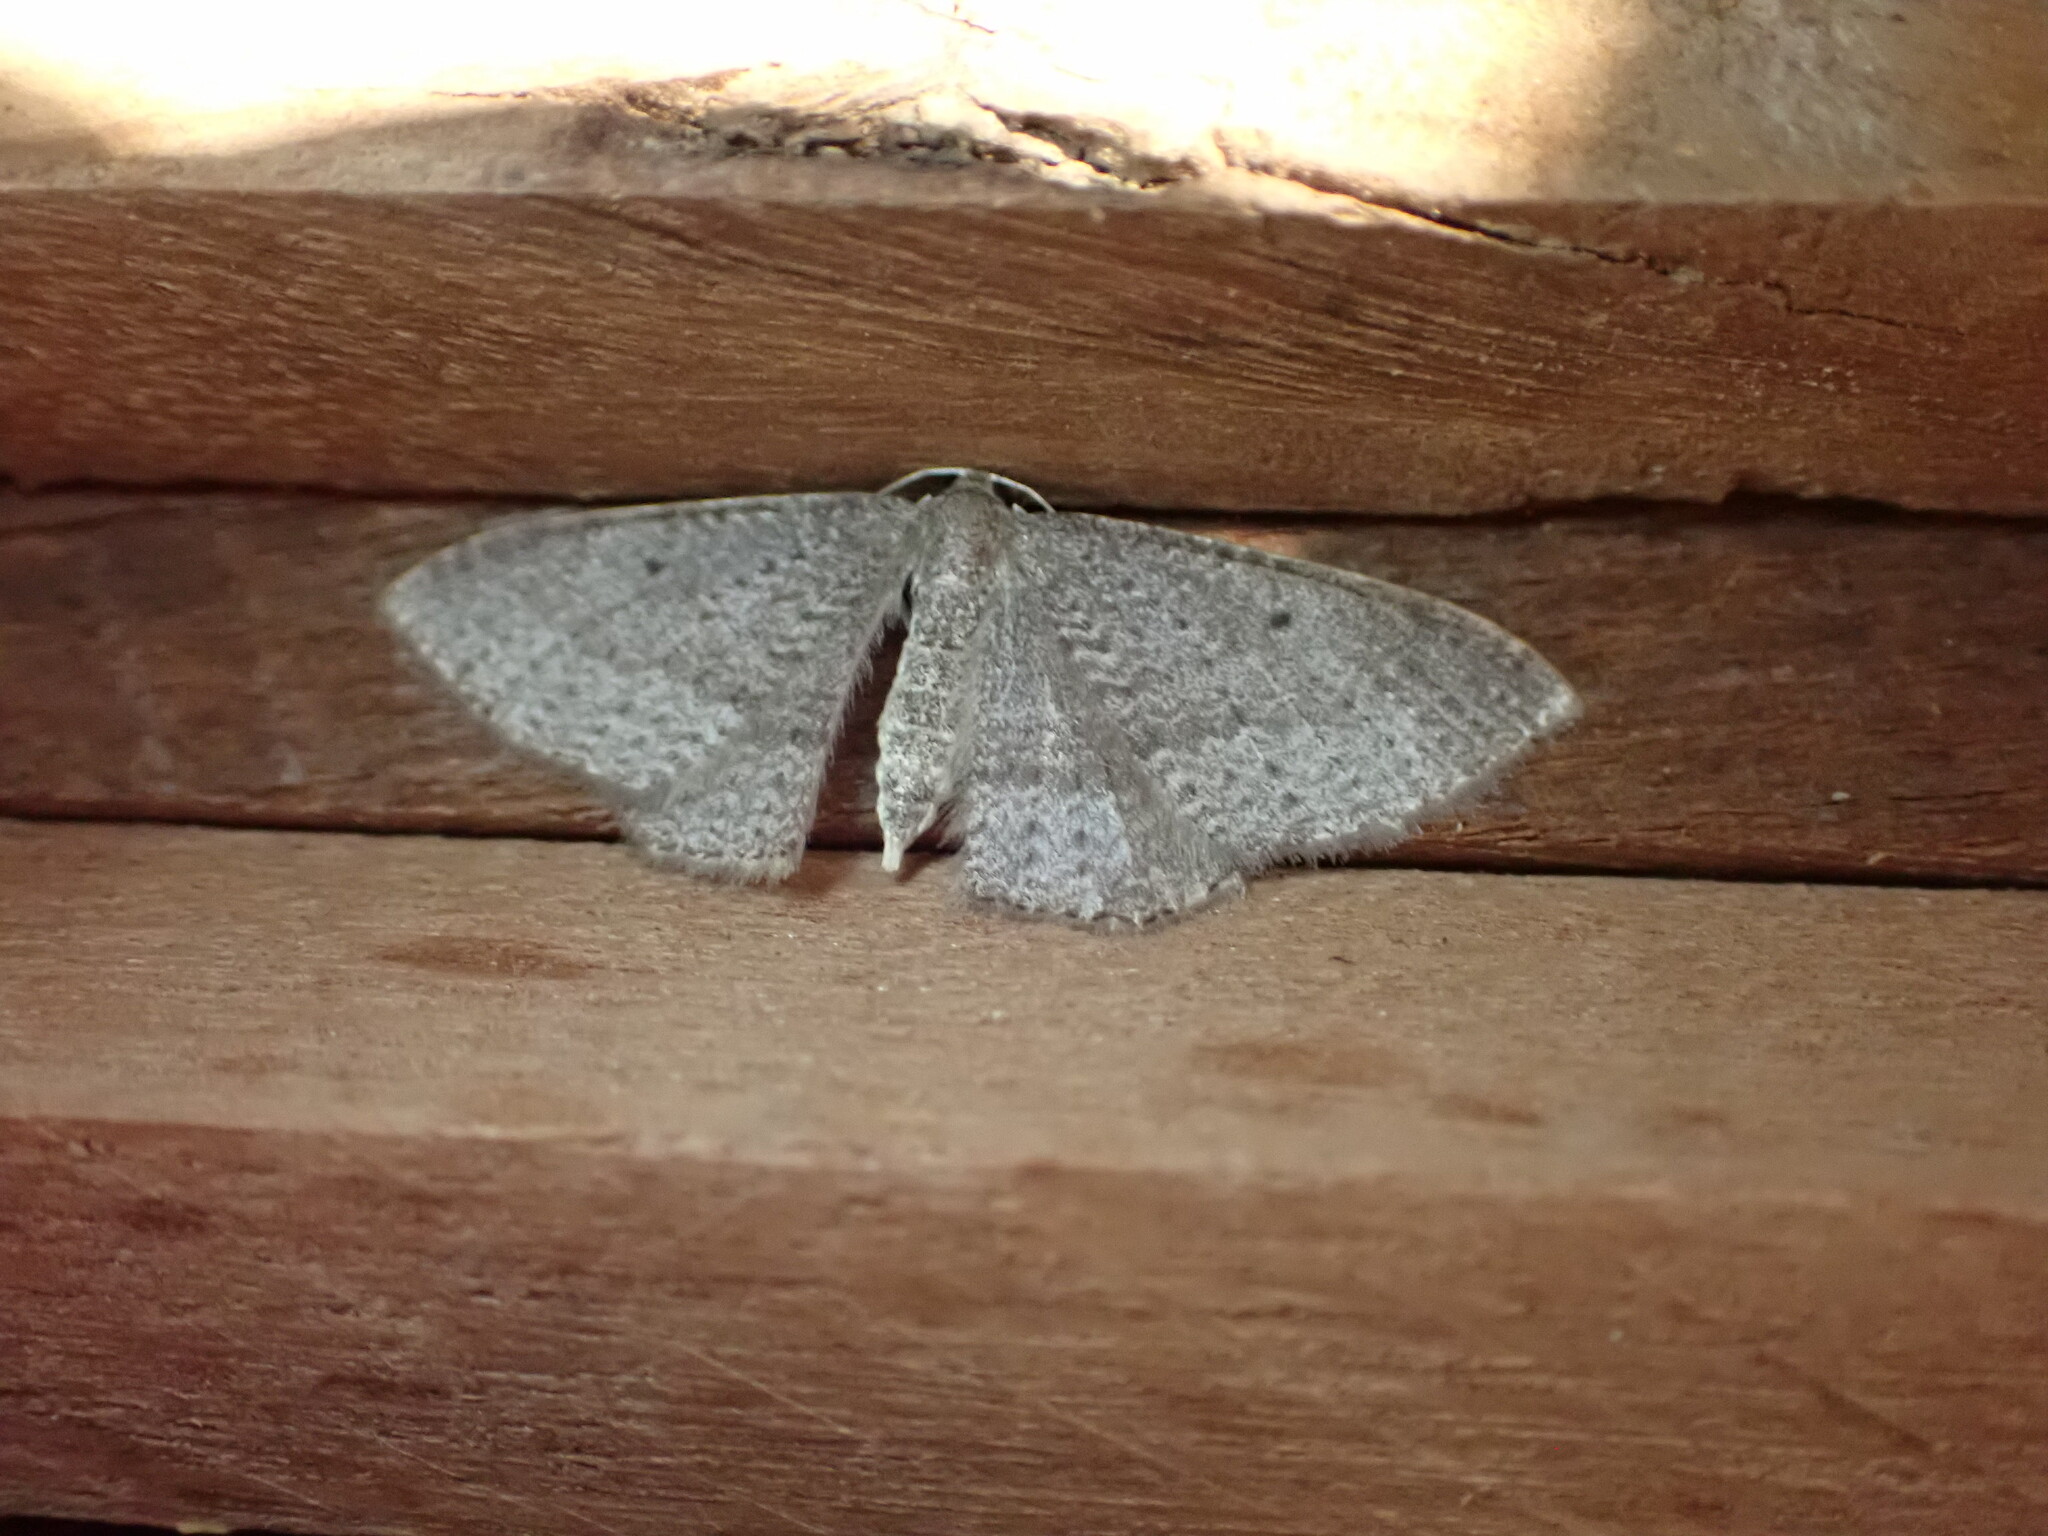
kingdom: Animalia
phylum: Arthropoda
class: Insecta
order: Lepidoptera
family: Geometridae
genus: Poecilasthena
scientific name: Poecilasthena pulchraria
